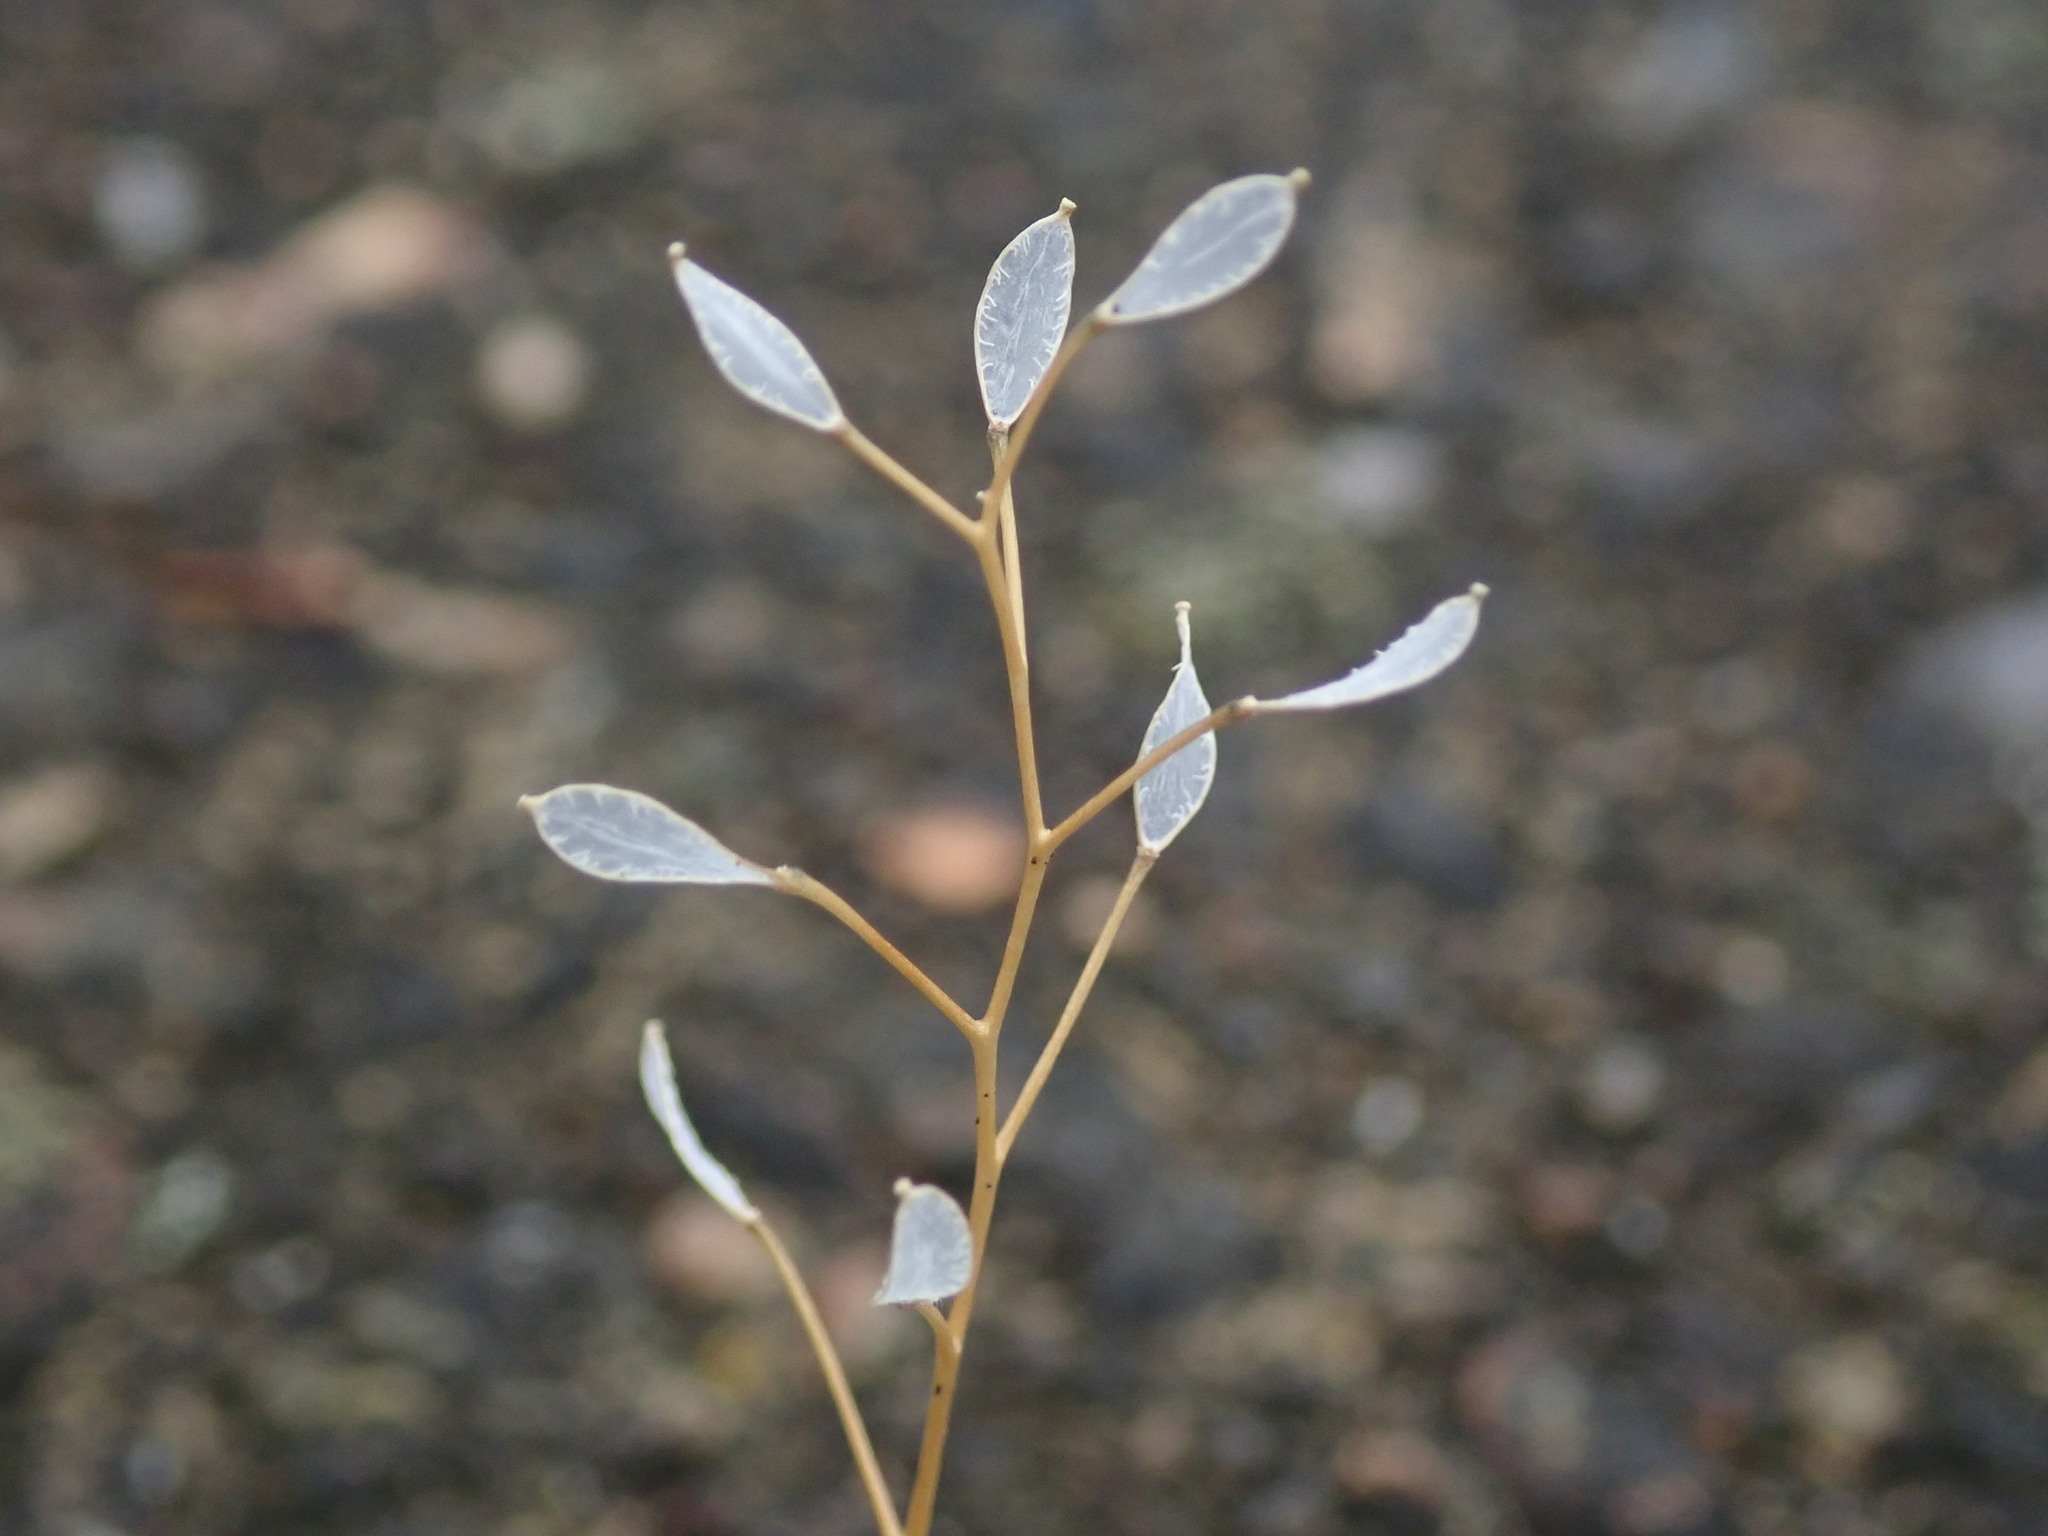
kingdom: Plantae
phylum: Tracheophyta
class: Magnoliopsida
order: Brassicales
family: Brassicaceae
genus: Draba
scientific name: Draba verna
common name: Spring draba
